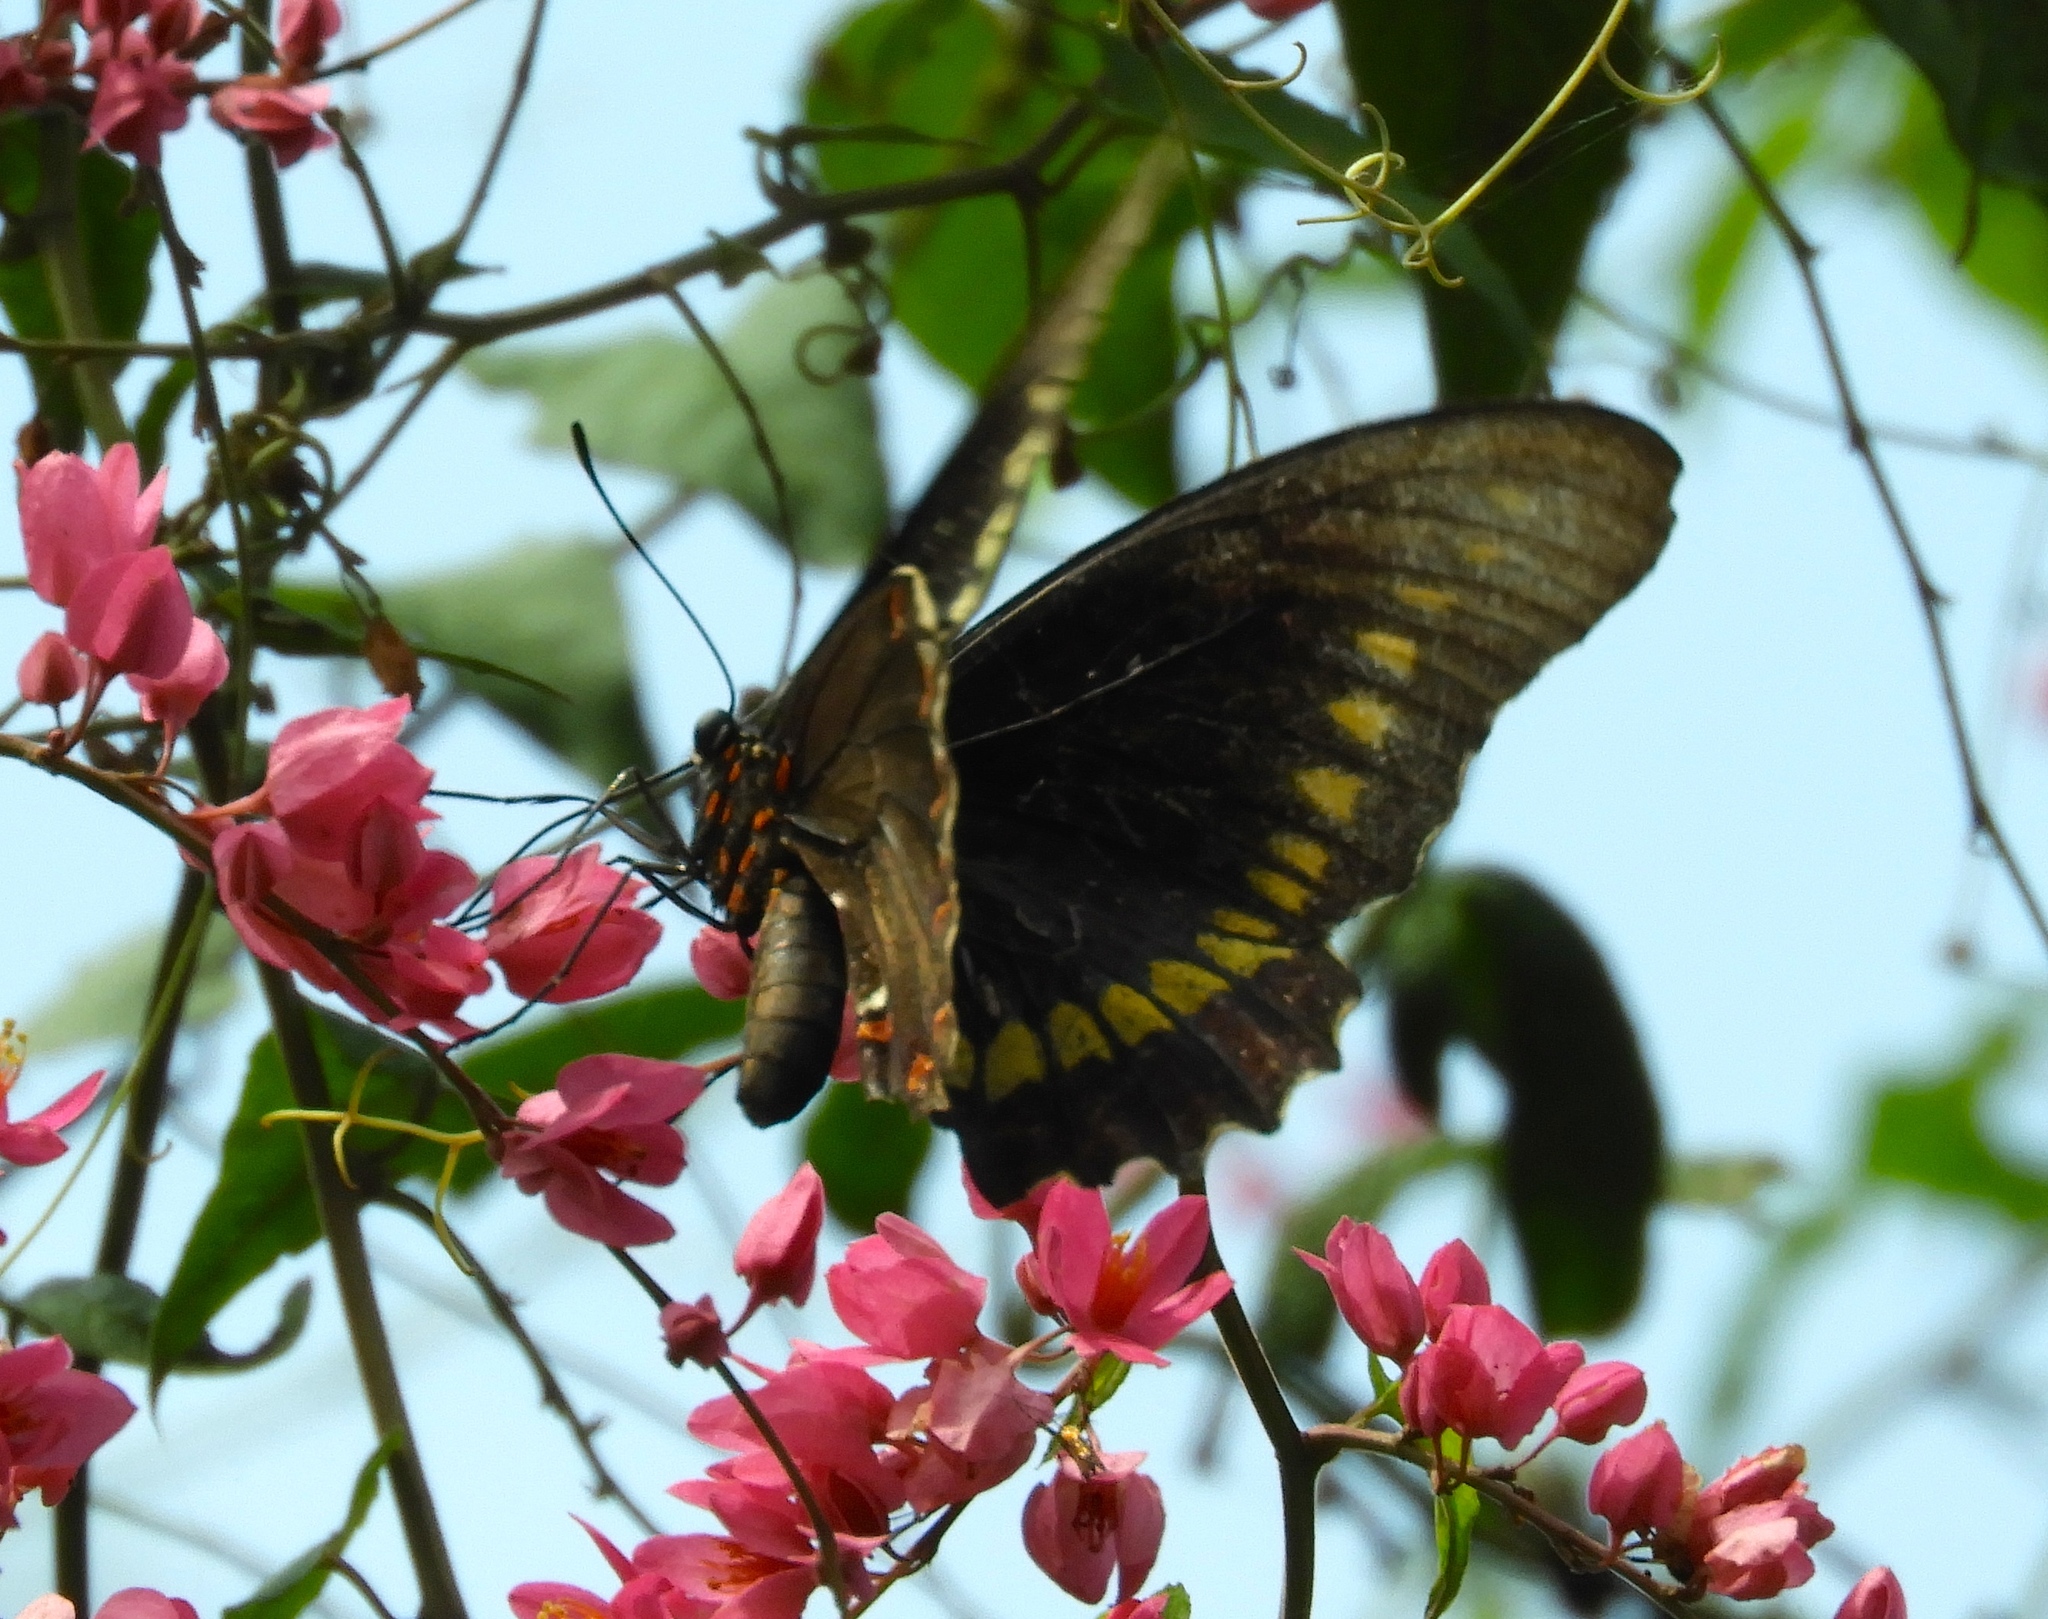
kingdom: Animalia
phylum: Arthropoda
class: Insecta
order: Lepidoptera
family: Papilionidae
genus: Battus
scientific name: Battus polydamas
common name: Polydamas swallowtail
